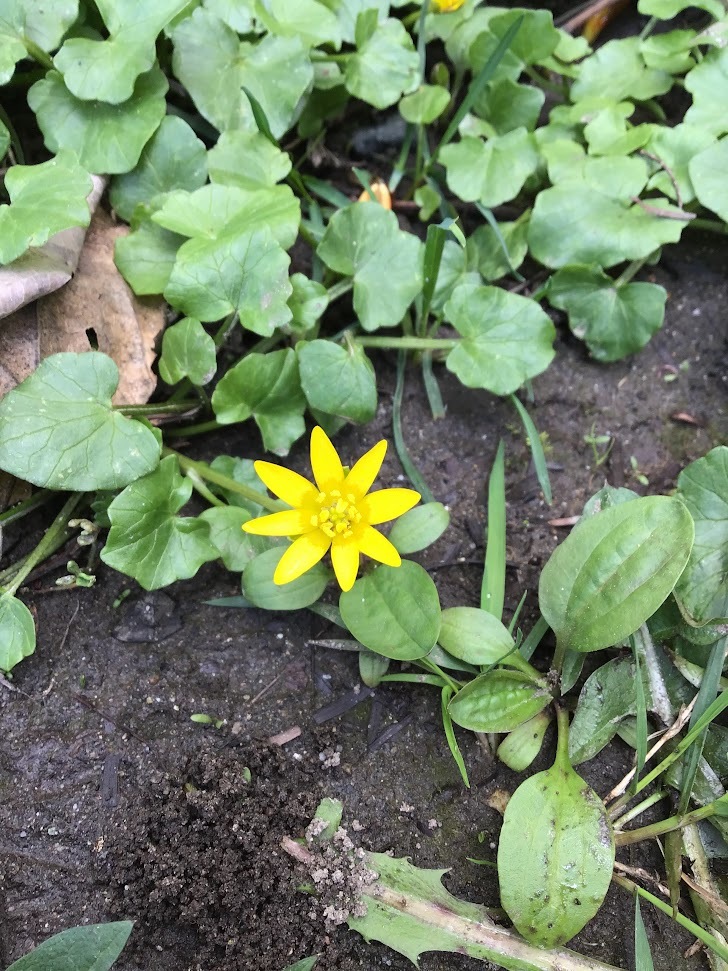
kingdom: Plantae
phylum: Tracheophyta
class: Magnoliopsida
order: Ranunculales
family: Ranunculaceae
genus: Ficaria
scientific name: Ficaria verna
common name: Lesser celandine
